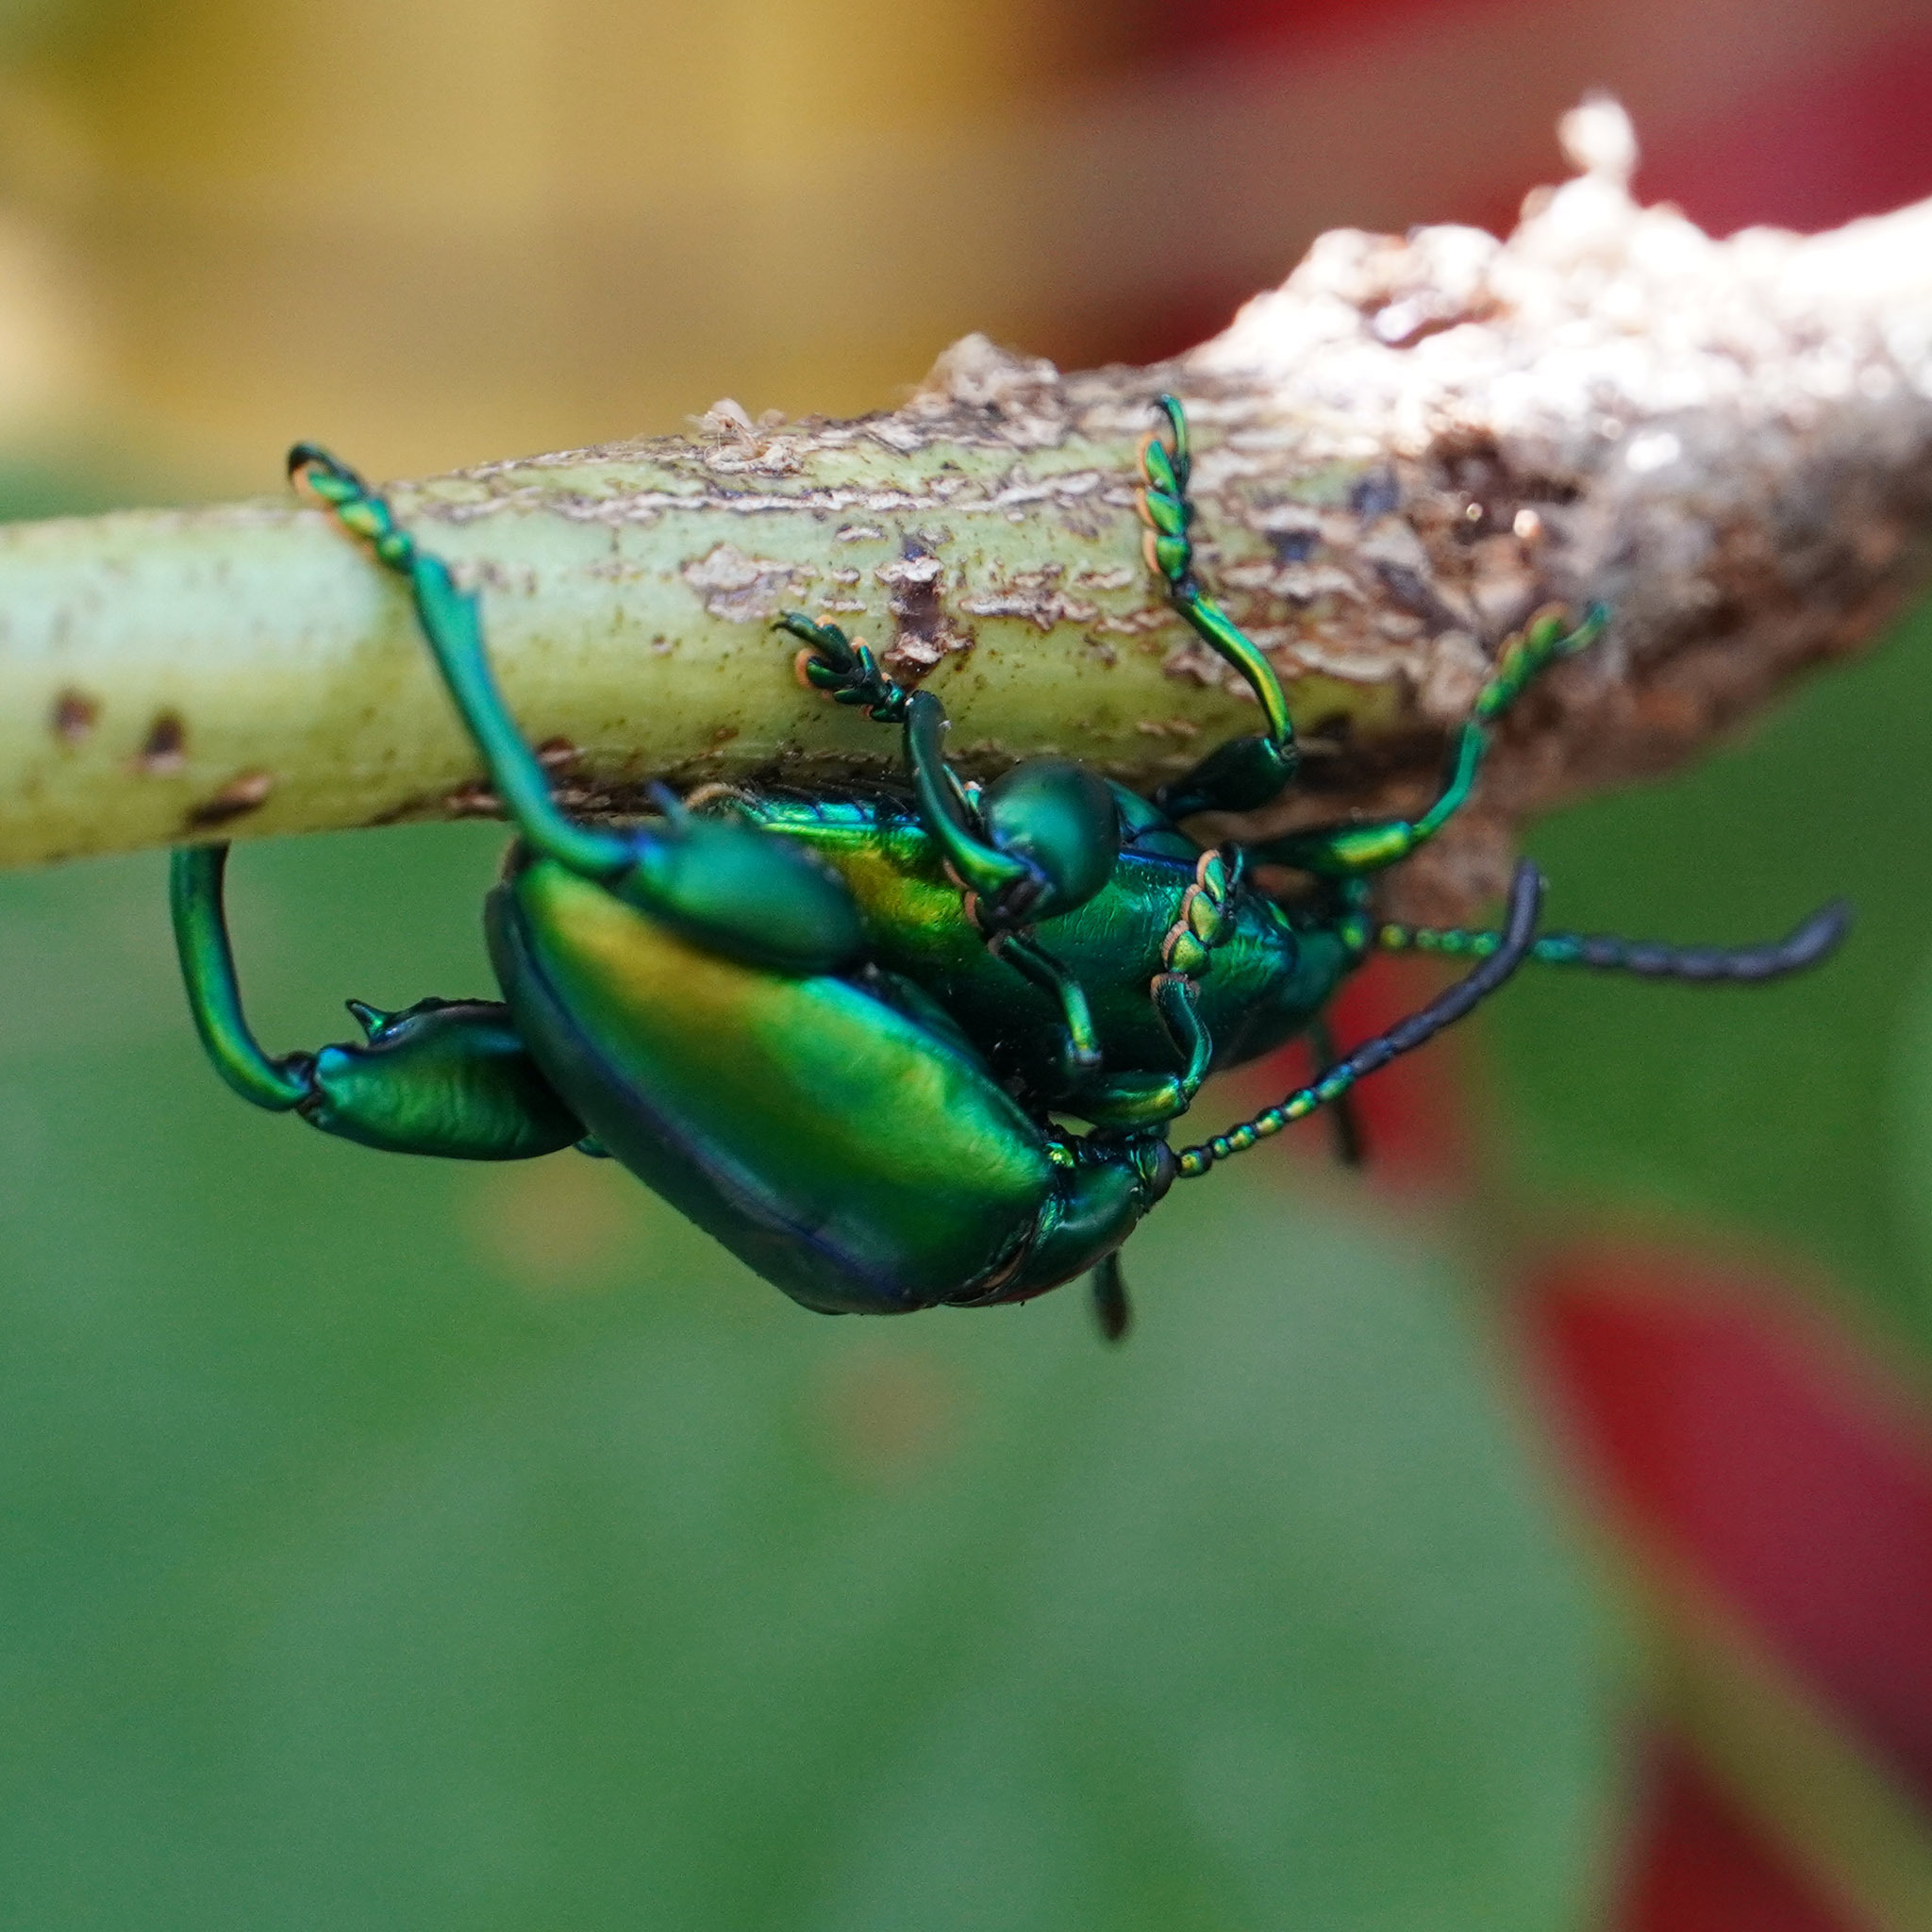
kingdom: Animalia
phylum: Arthropoda
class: Insecta
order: Coleoptera
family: Chrysomelidae
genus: Sagra
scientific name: Sagra femorata
